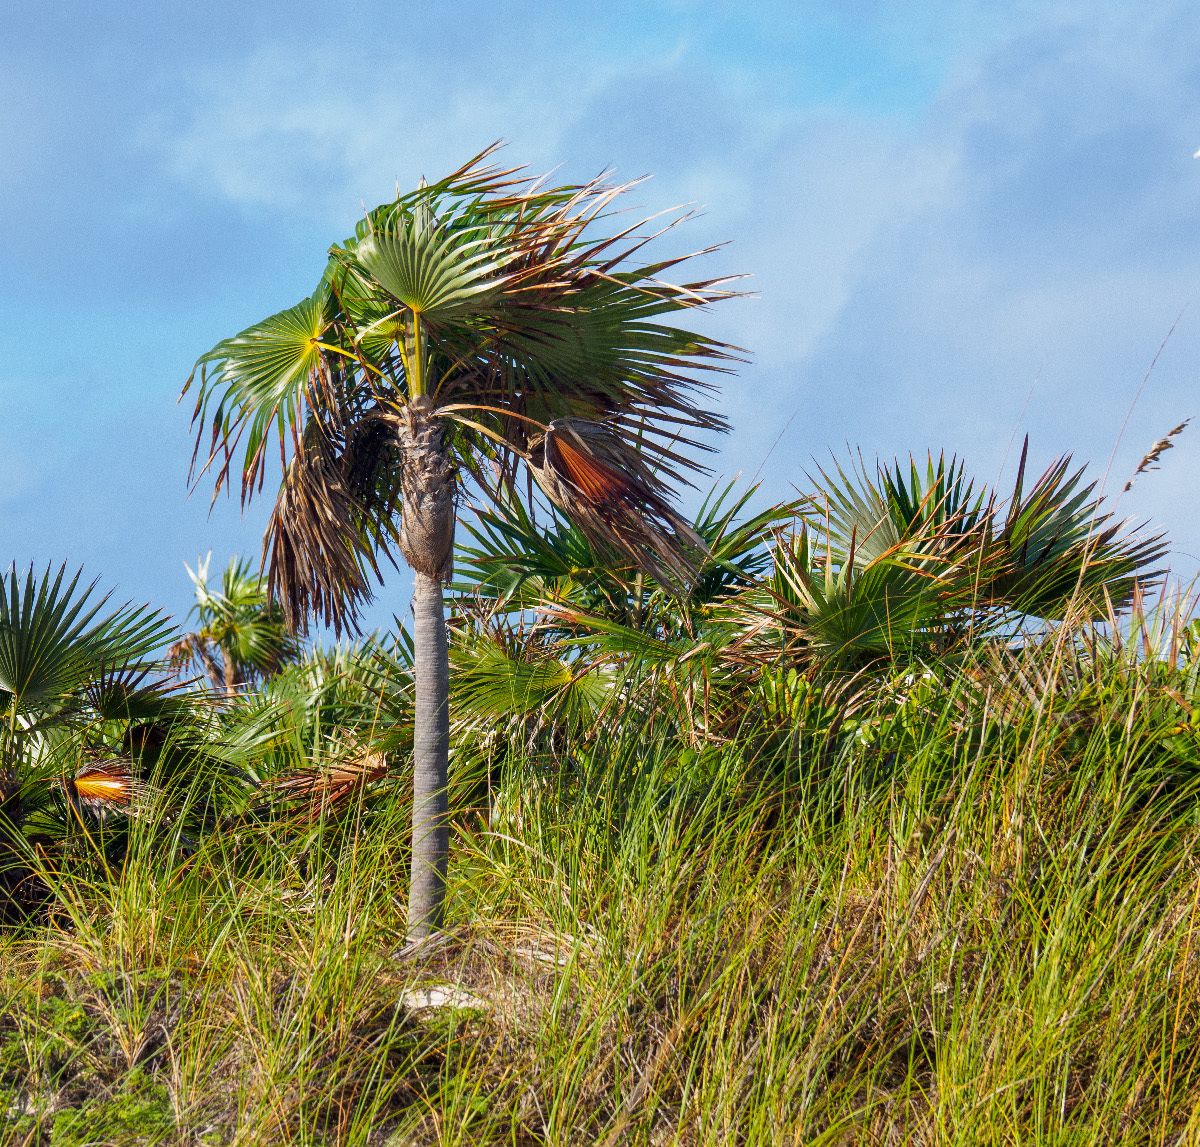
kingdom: Plantae
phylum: Tracheophyta
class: Liliopsida
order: Arecales
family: Arecaceae
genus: Coccothrinax
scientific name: Coccothrinax argentata
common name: Florida silver palm
